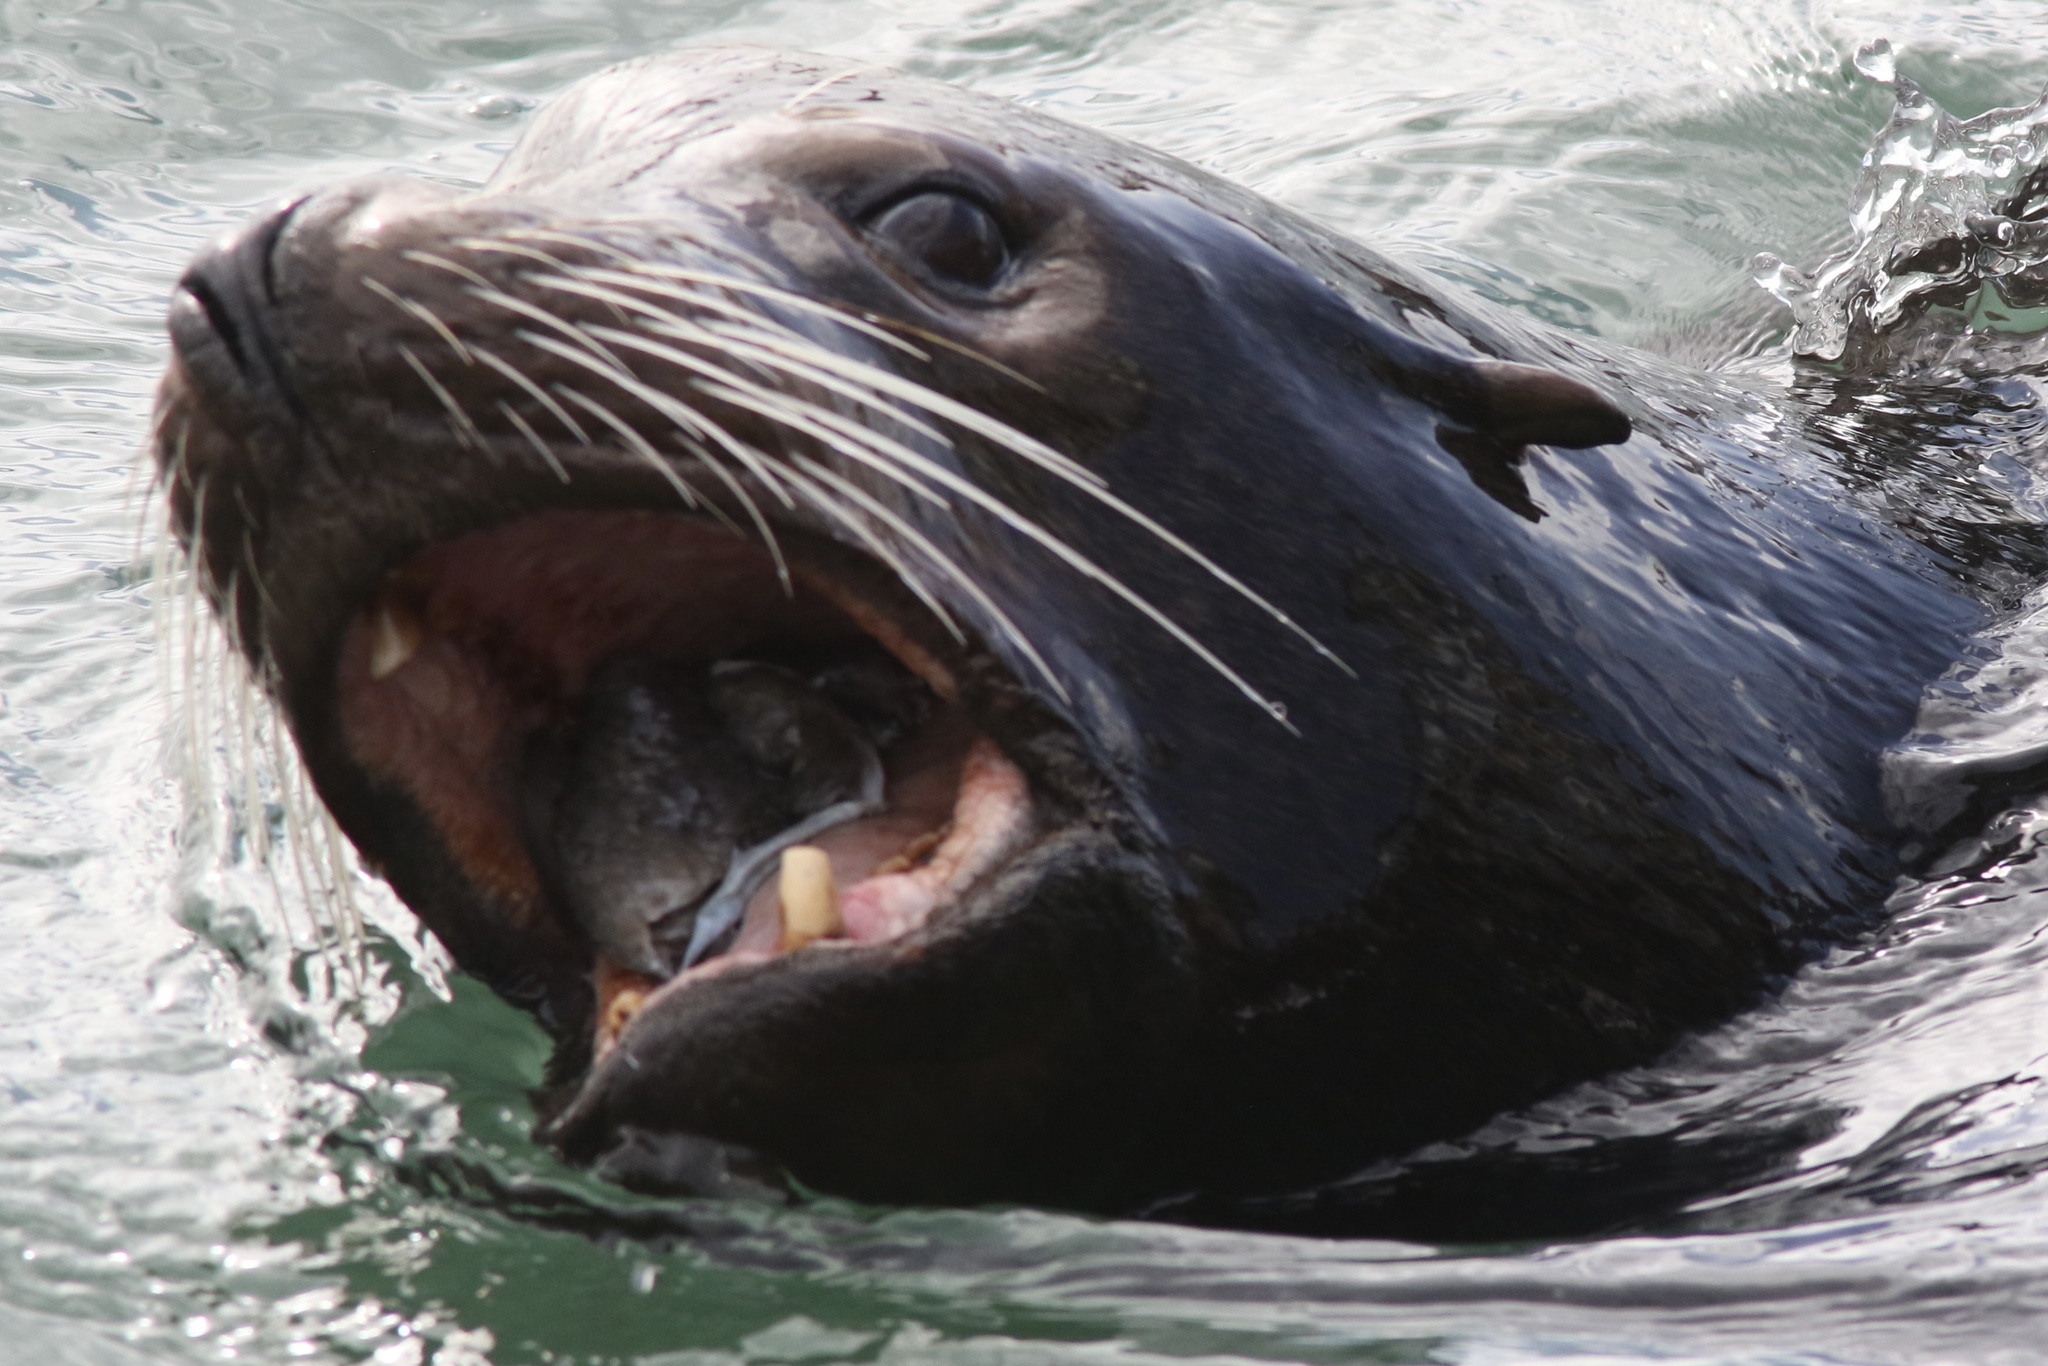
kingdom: Animalia
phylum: Chordata
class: Mammalia
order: Carnivora
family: Otariidae
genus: Zalophus
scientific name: Zalophus californianus
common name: California sea lion
